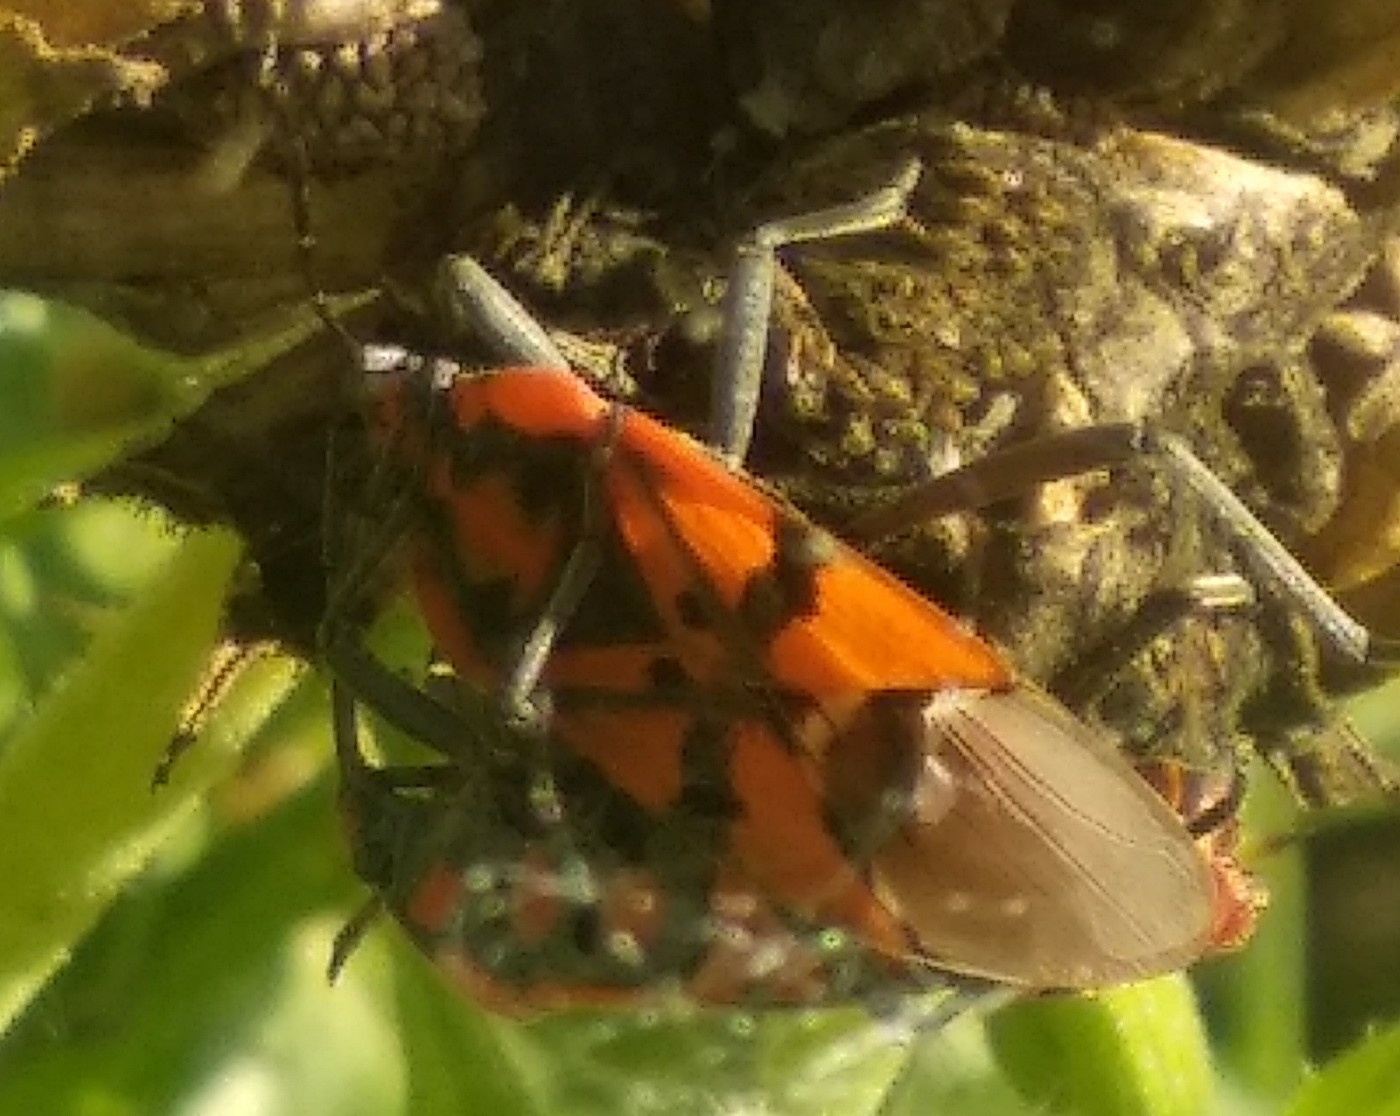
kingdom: Animalia
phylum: Arthropoda
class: Insecta
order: Hemiptera
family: Lygaeidae
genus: Spilostethus
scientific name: Spilostethus pandurus
